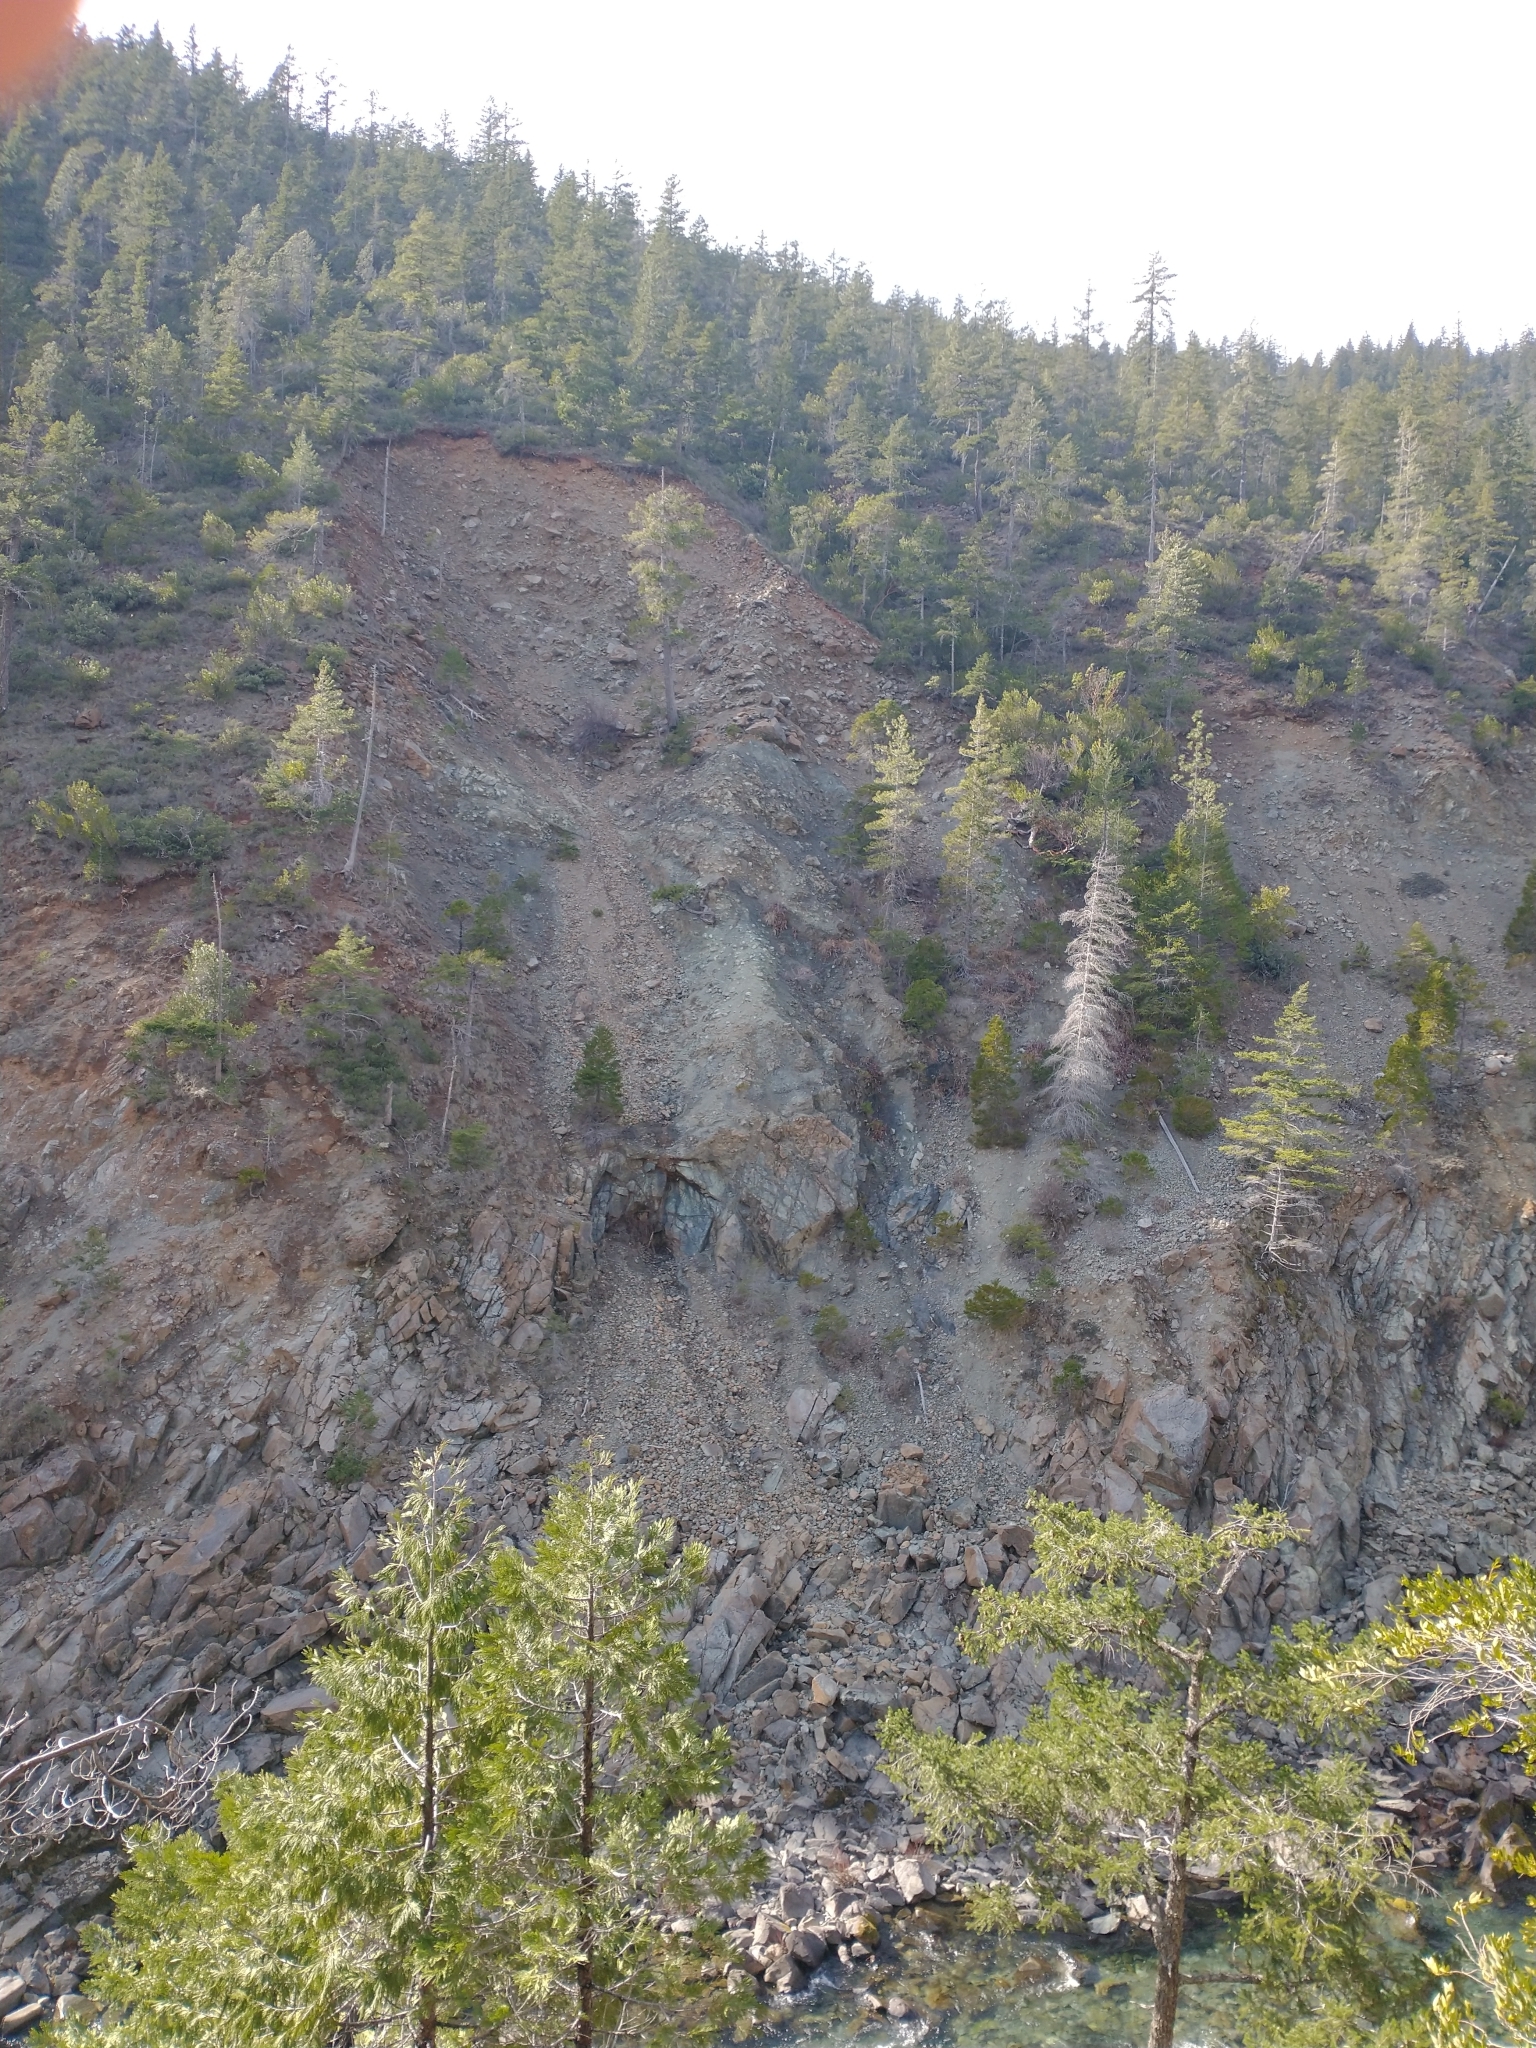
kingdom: Plantae
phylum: Tracheophyta
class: Pinopsida
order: Pinales
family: Cupressaceae
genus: Calocedrus
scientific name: Calocedrus decurrens
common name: Californian incense-cedar
